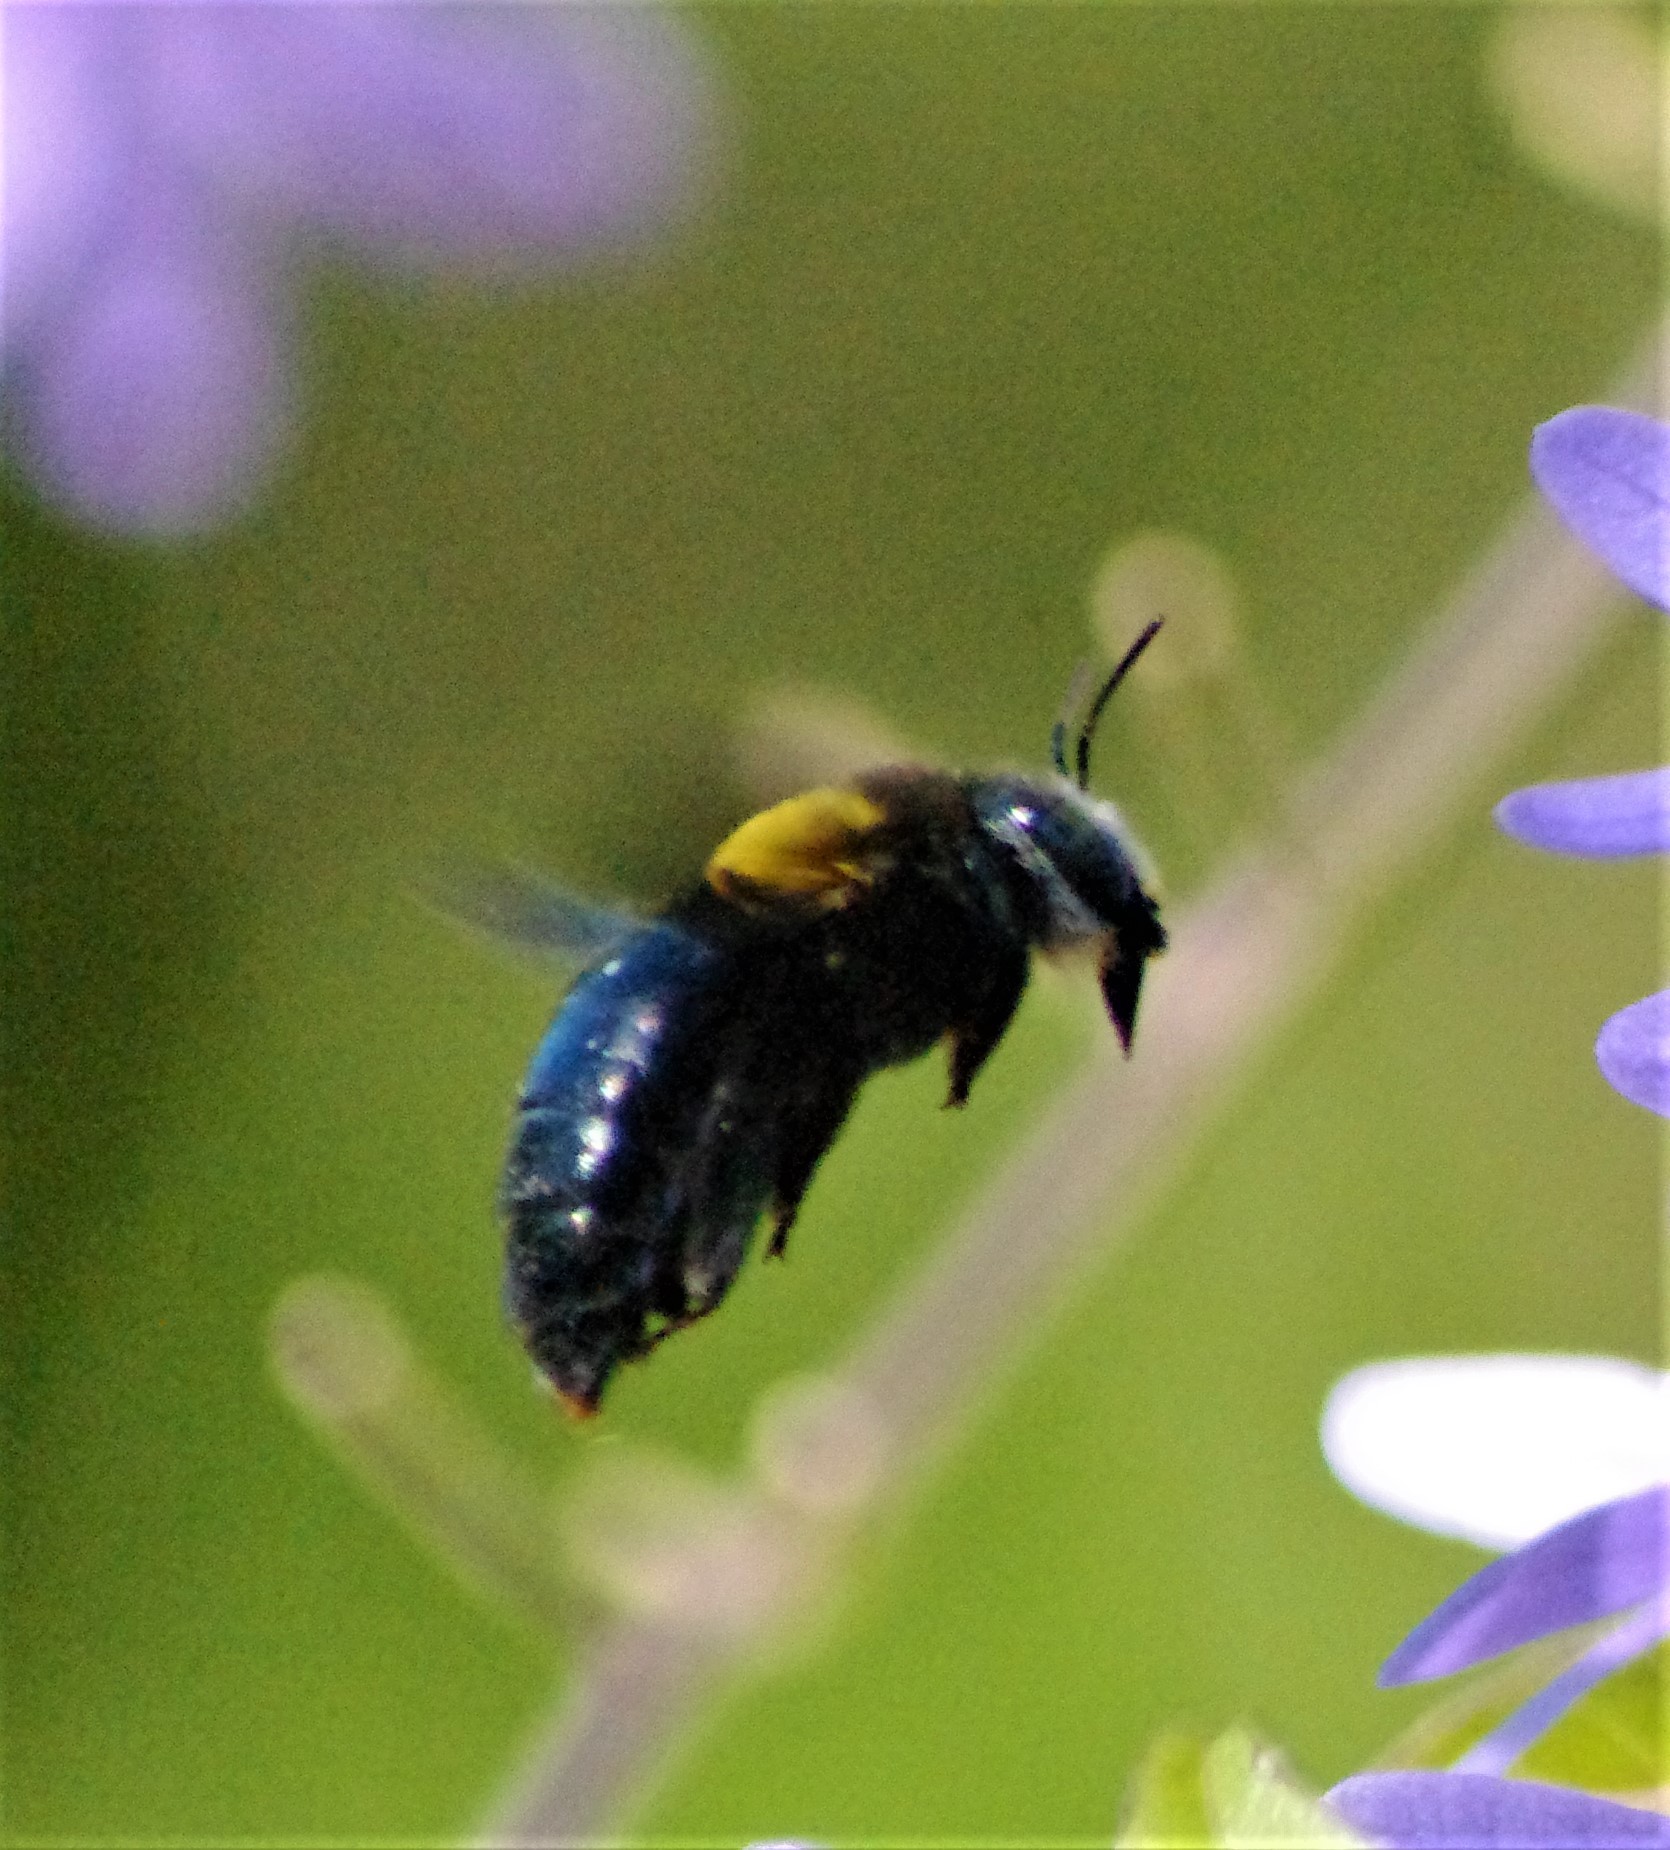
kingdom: Animalia
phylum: Arthropoda
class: Insecta
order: Hymenoptera
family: Apidae
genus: Xylocopa
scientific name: Xylocopa flavicollis
